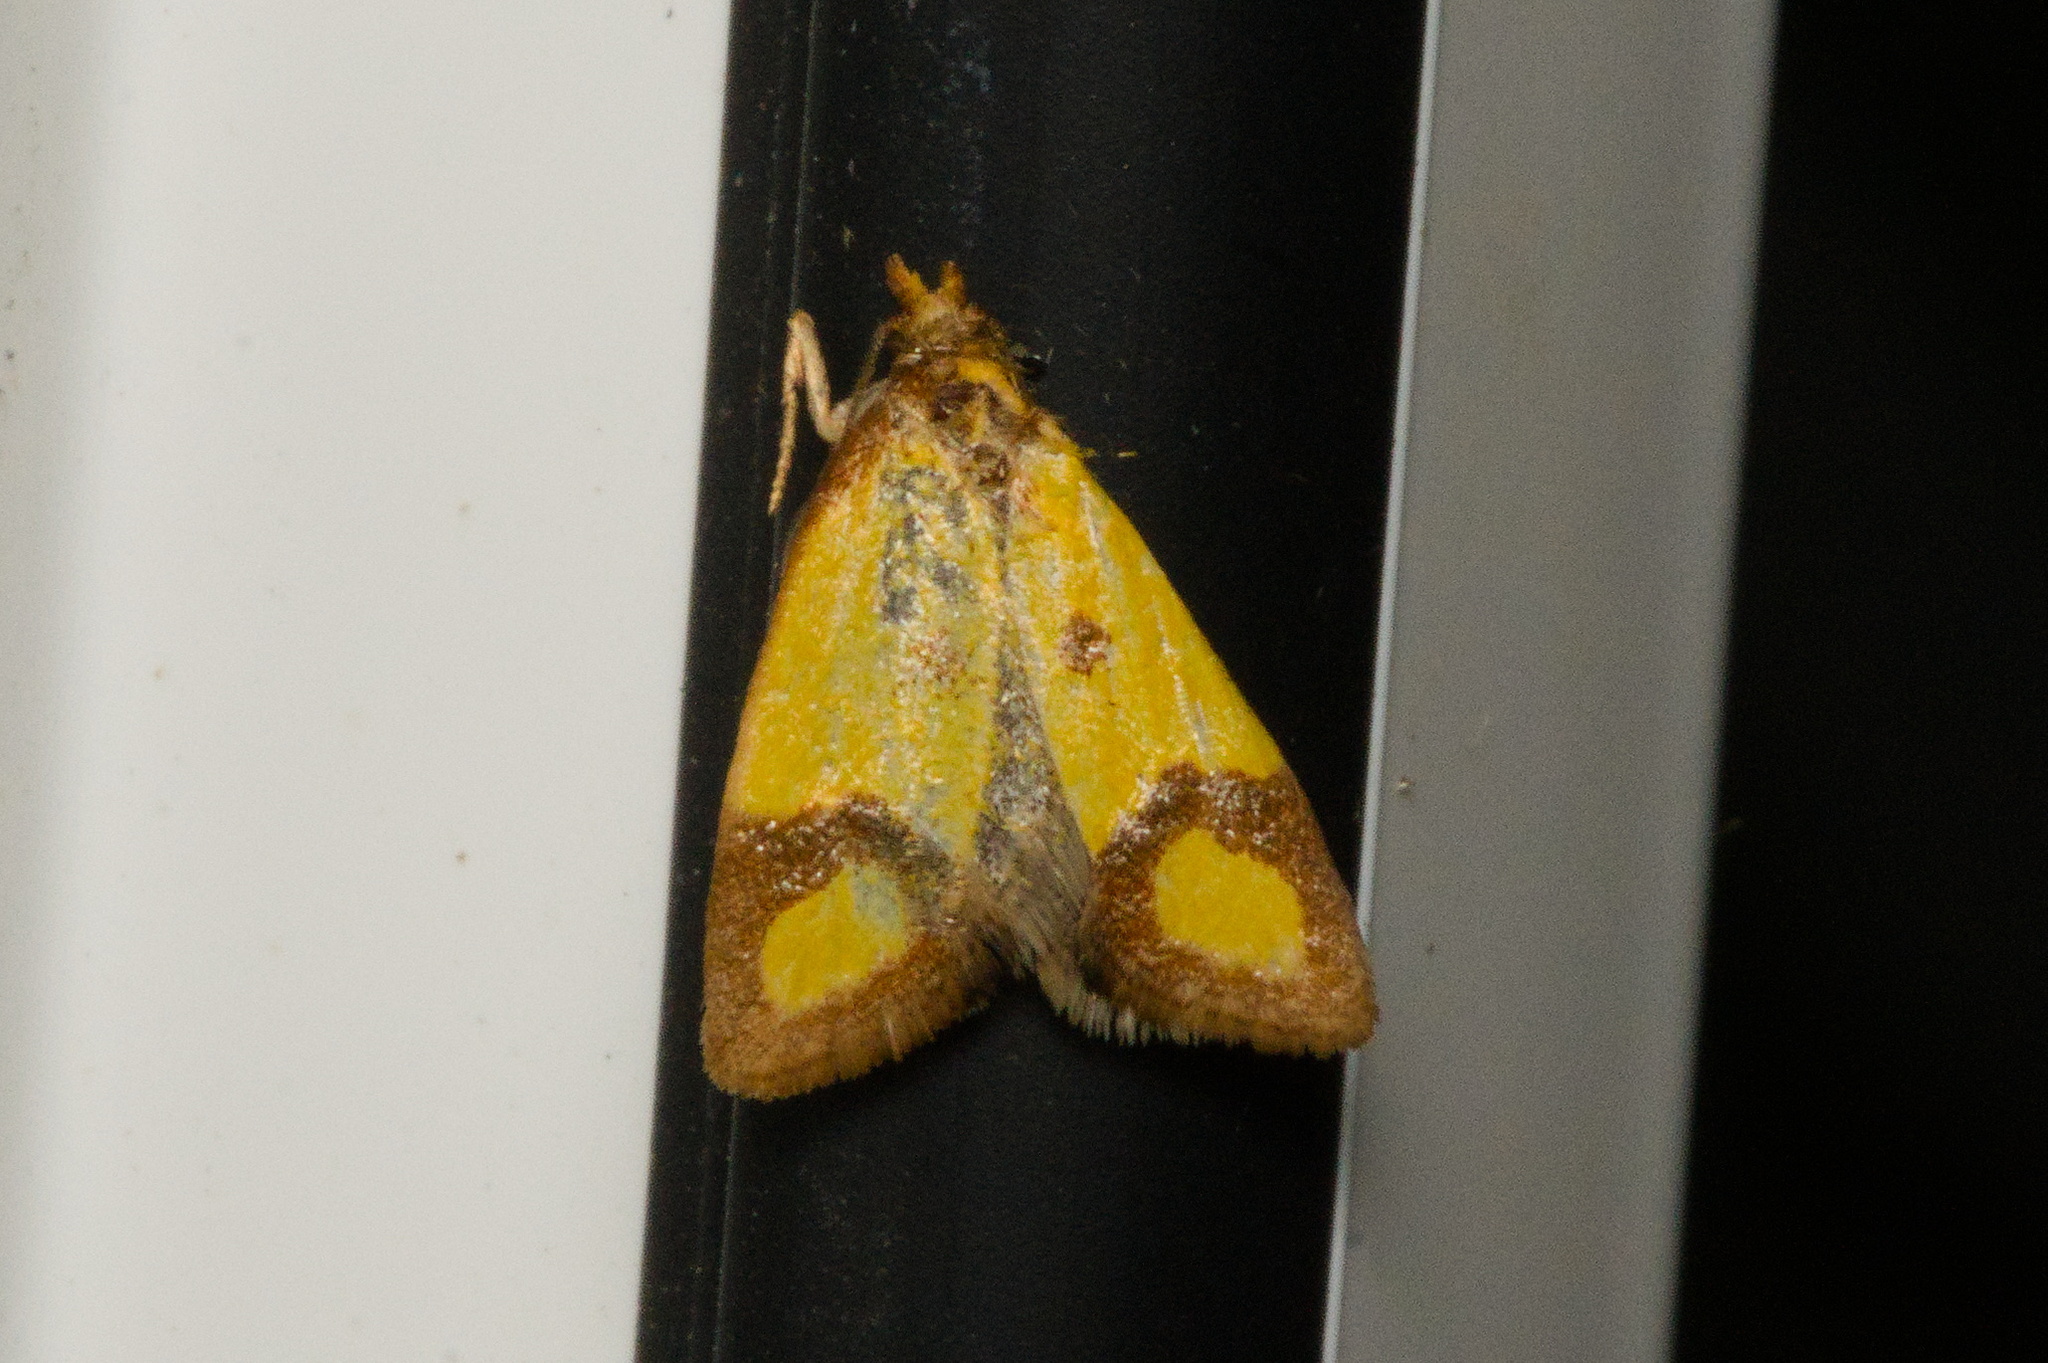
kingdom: Animalia
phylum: Arthropoda
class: Insecta
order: Lepidoptera
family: Tortricidae
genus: Agapeta
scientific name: Agapeta zoegana
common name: Sulfur knapweed root moth
